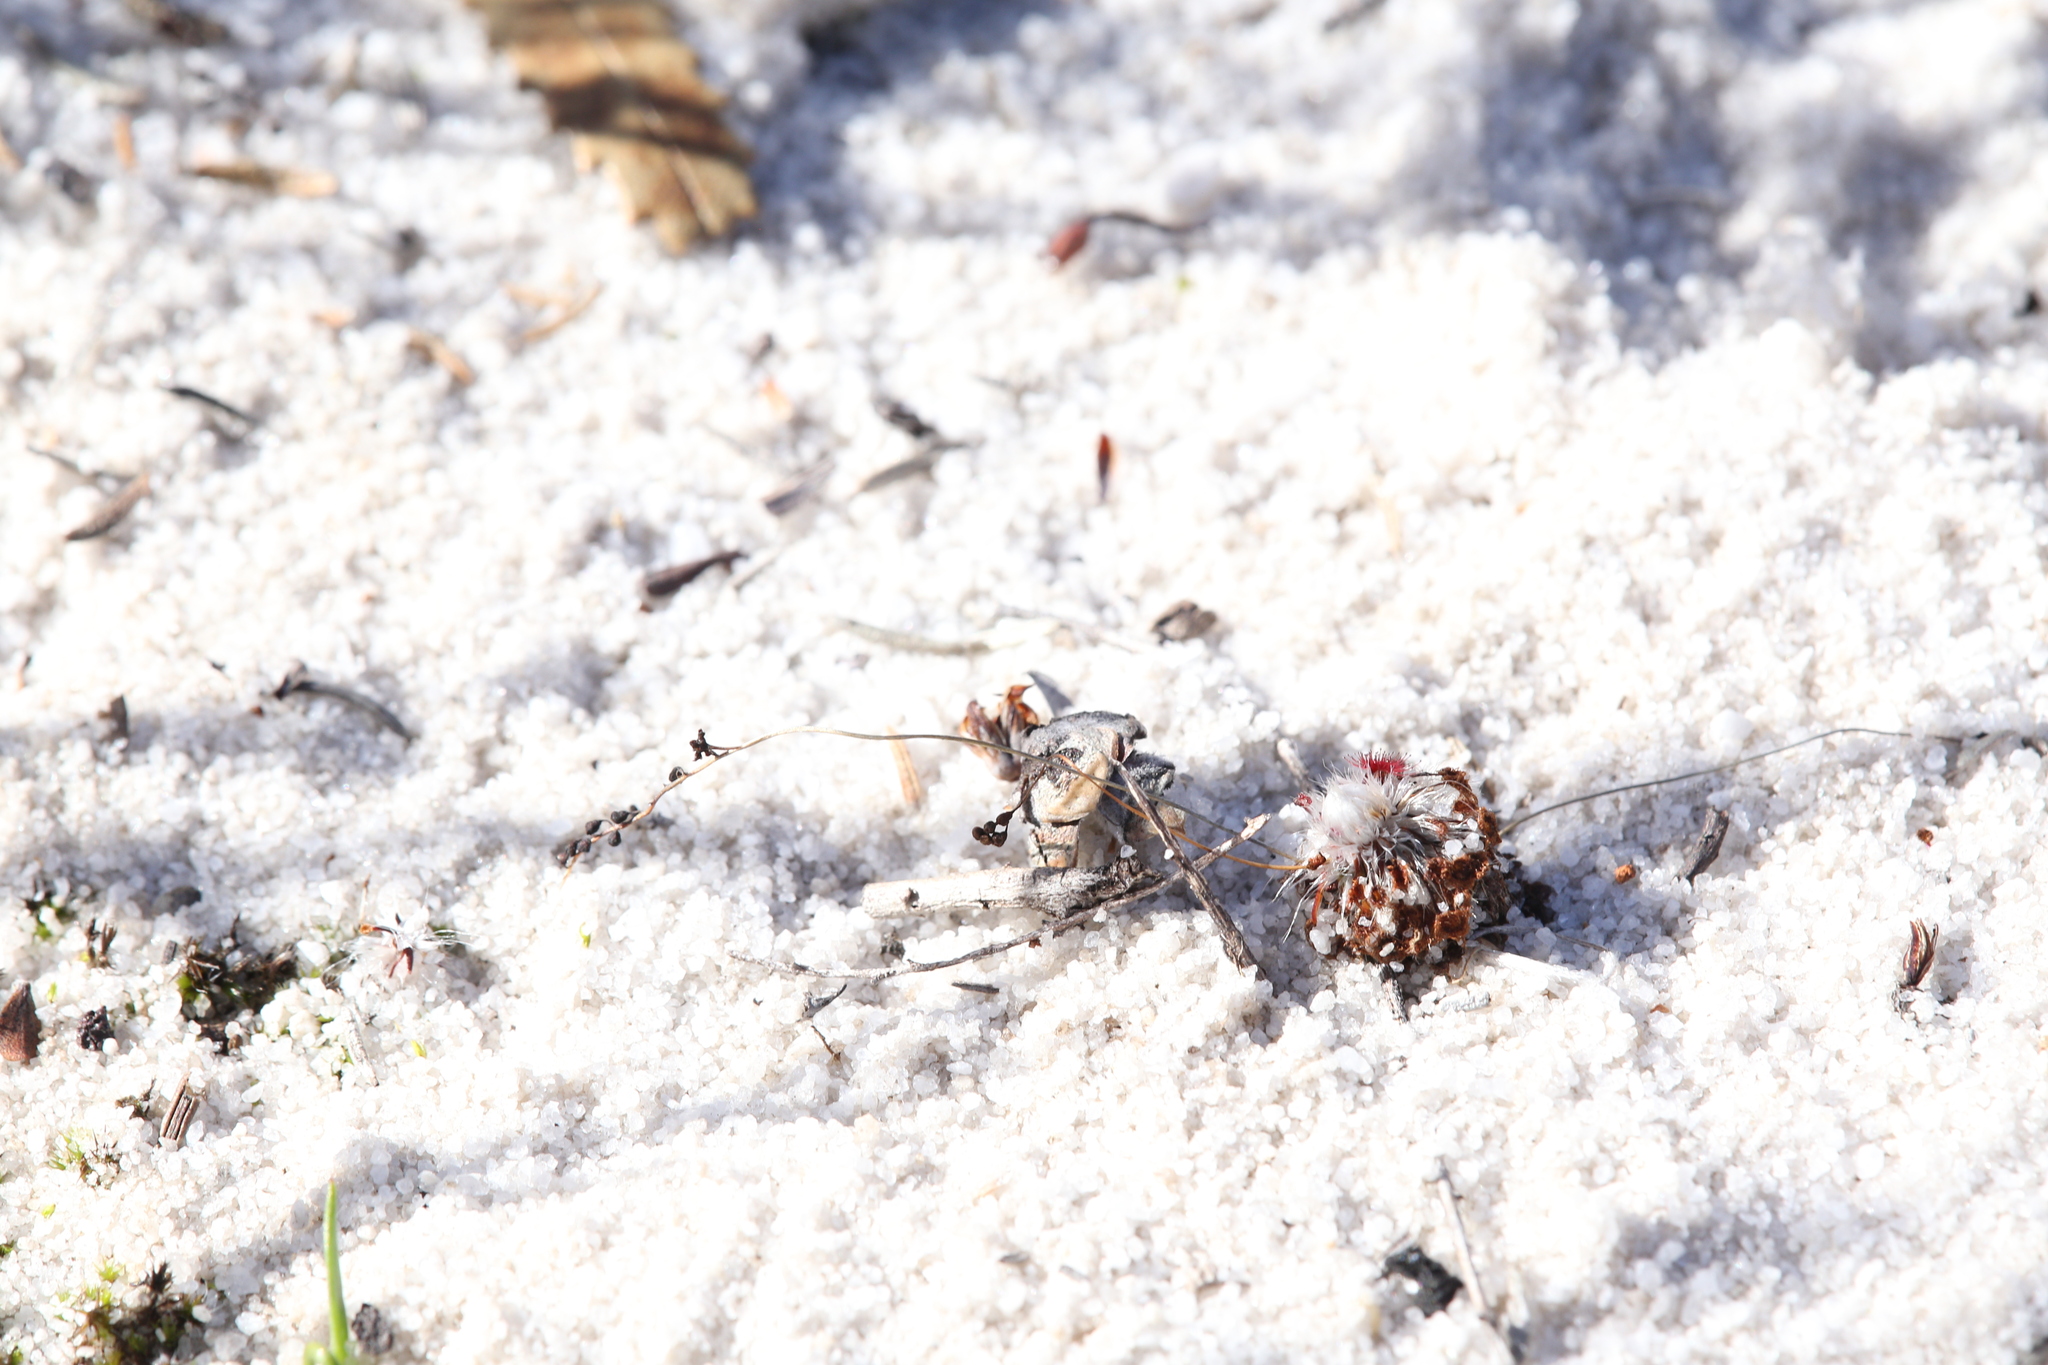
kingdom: Plantae
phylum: Tracheophyta
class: Magnoliopsida
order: Caryophyllales
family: Droseraceae
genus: Drosera
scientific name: Drosera paleacea
